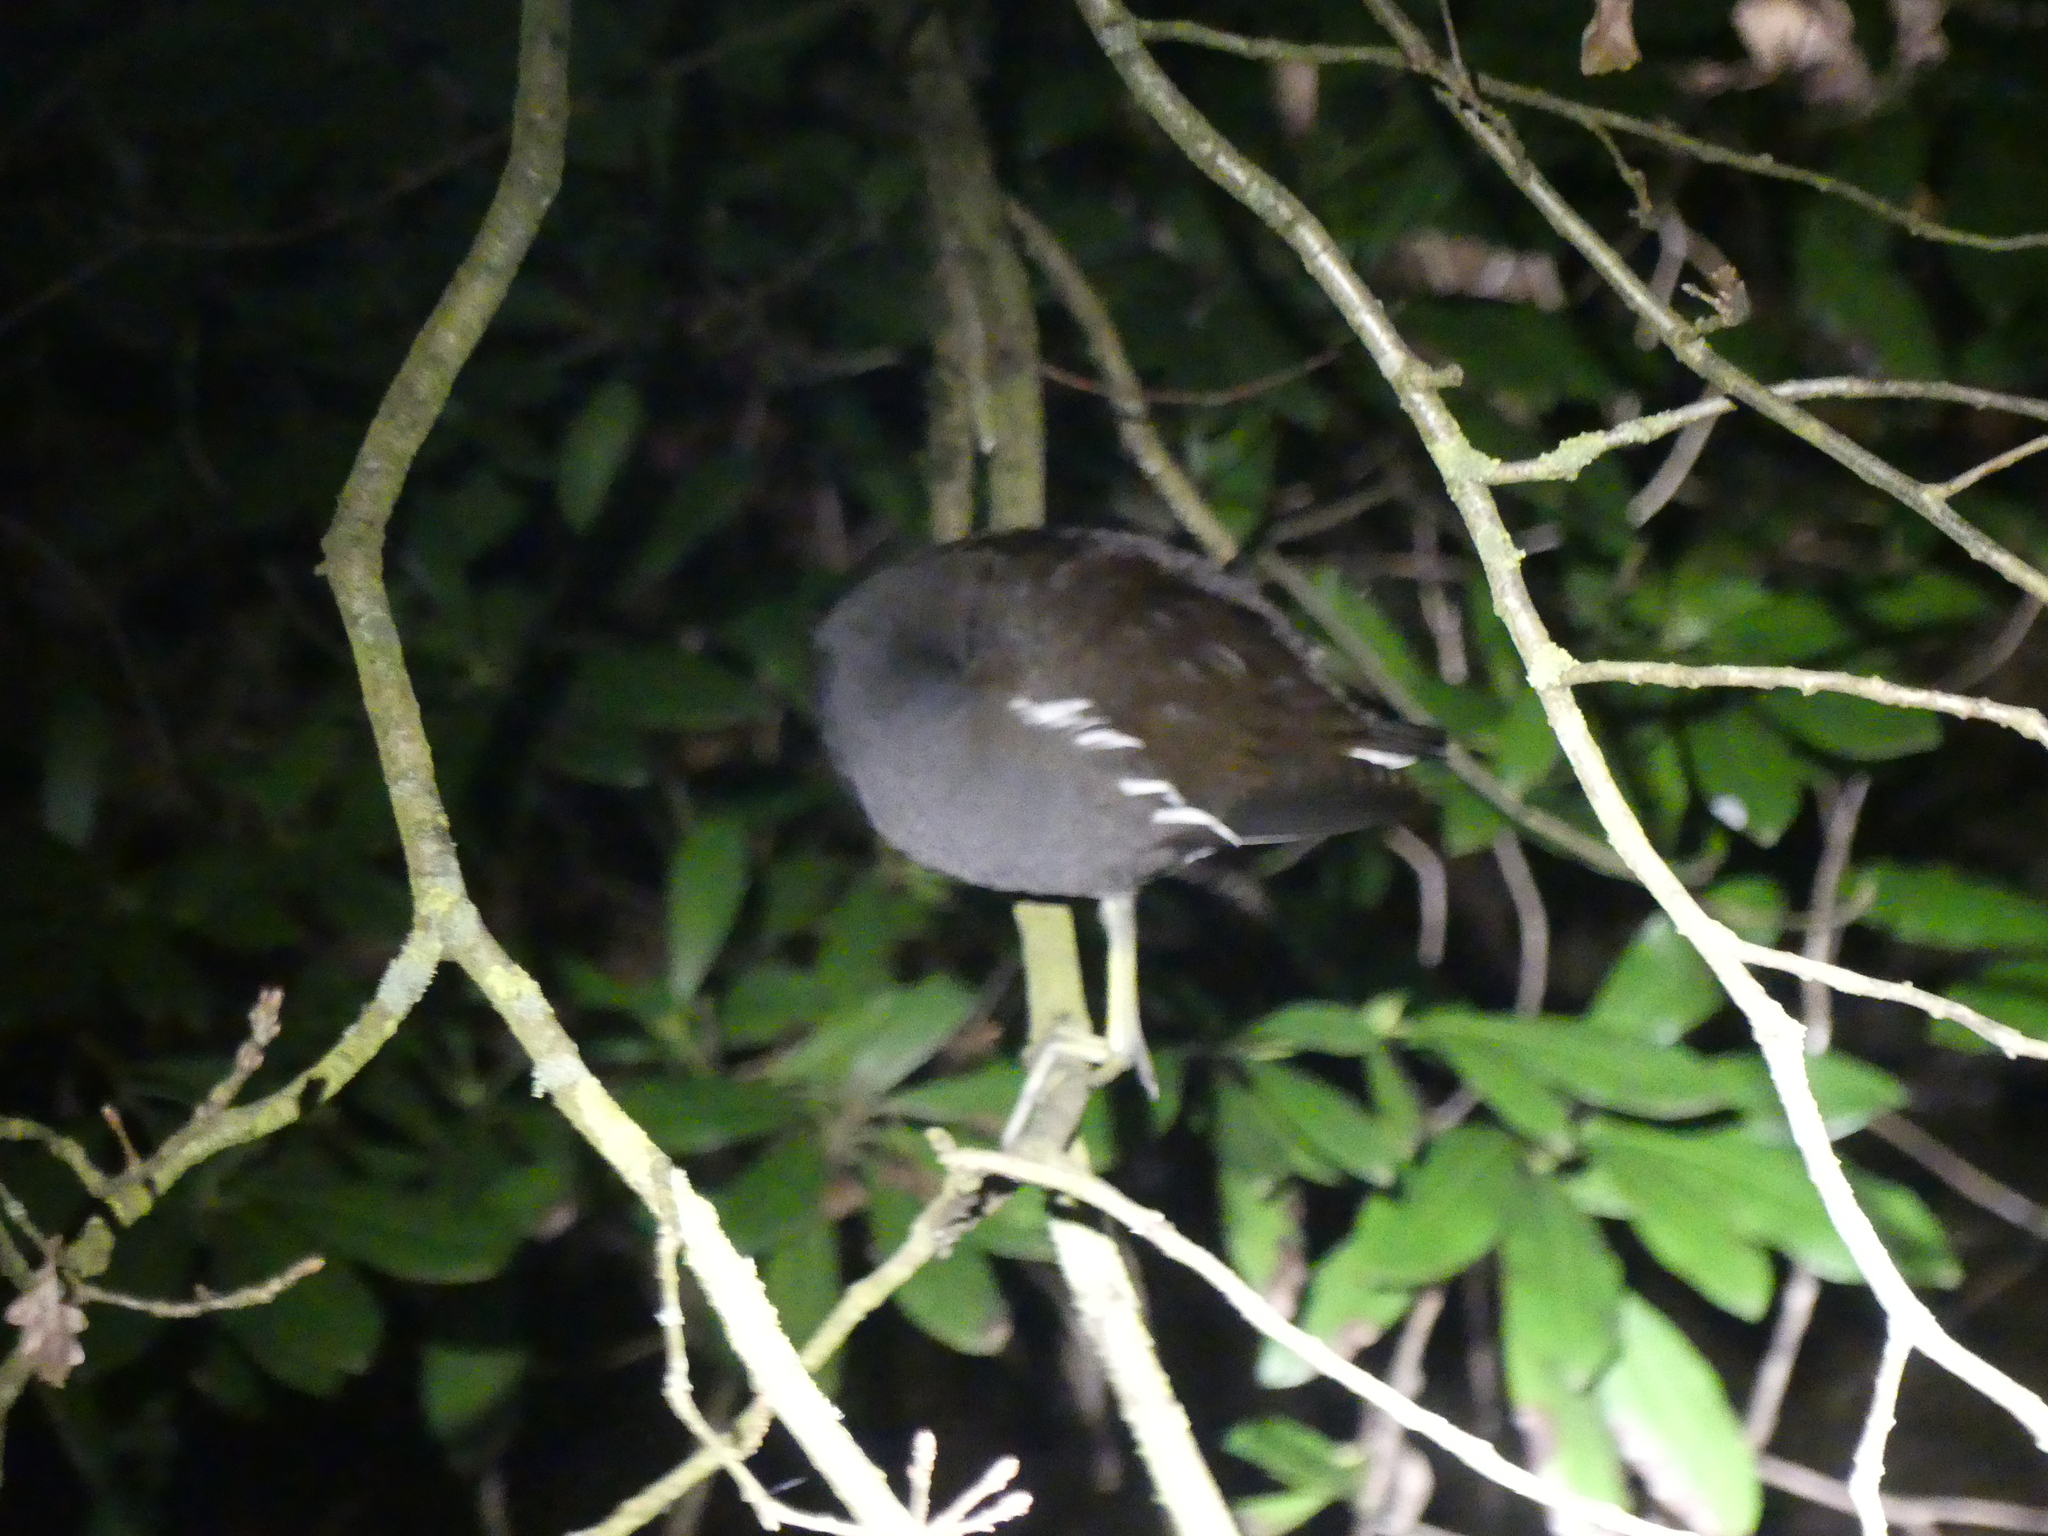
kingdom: Animalia
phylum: Chordata
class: Aves
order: Gruiformes
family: Rallidae
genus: Gallinula
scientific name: Gallinula chloropus
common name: Common moorhen
